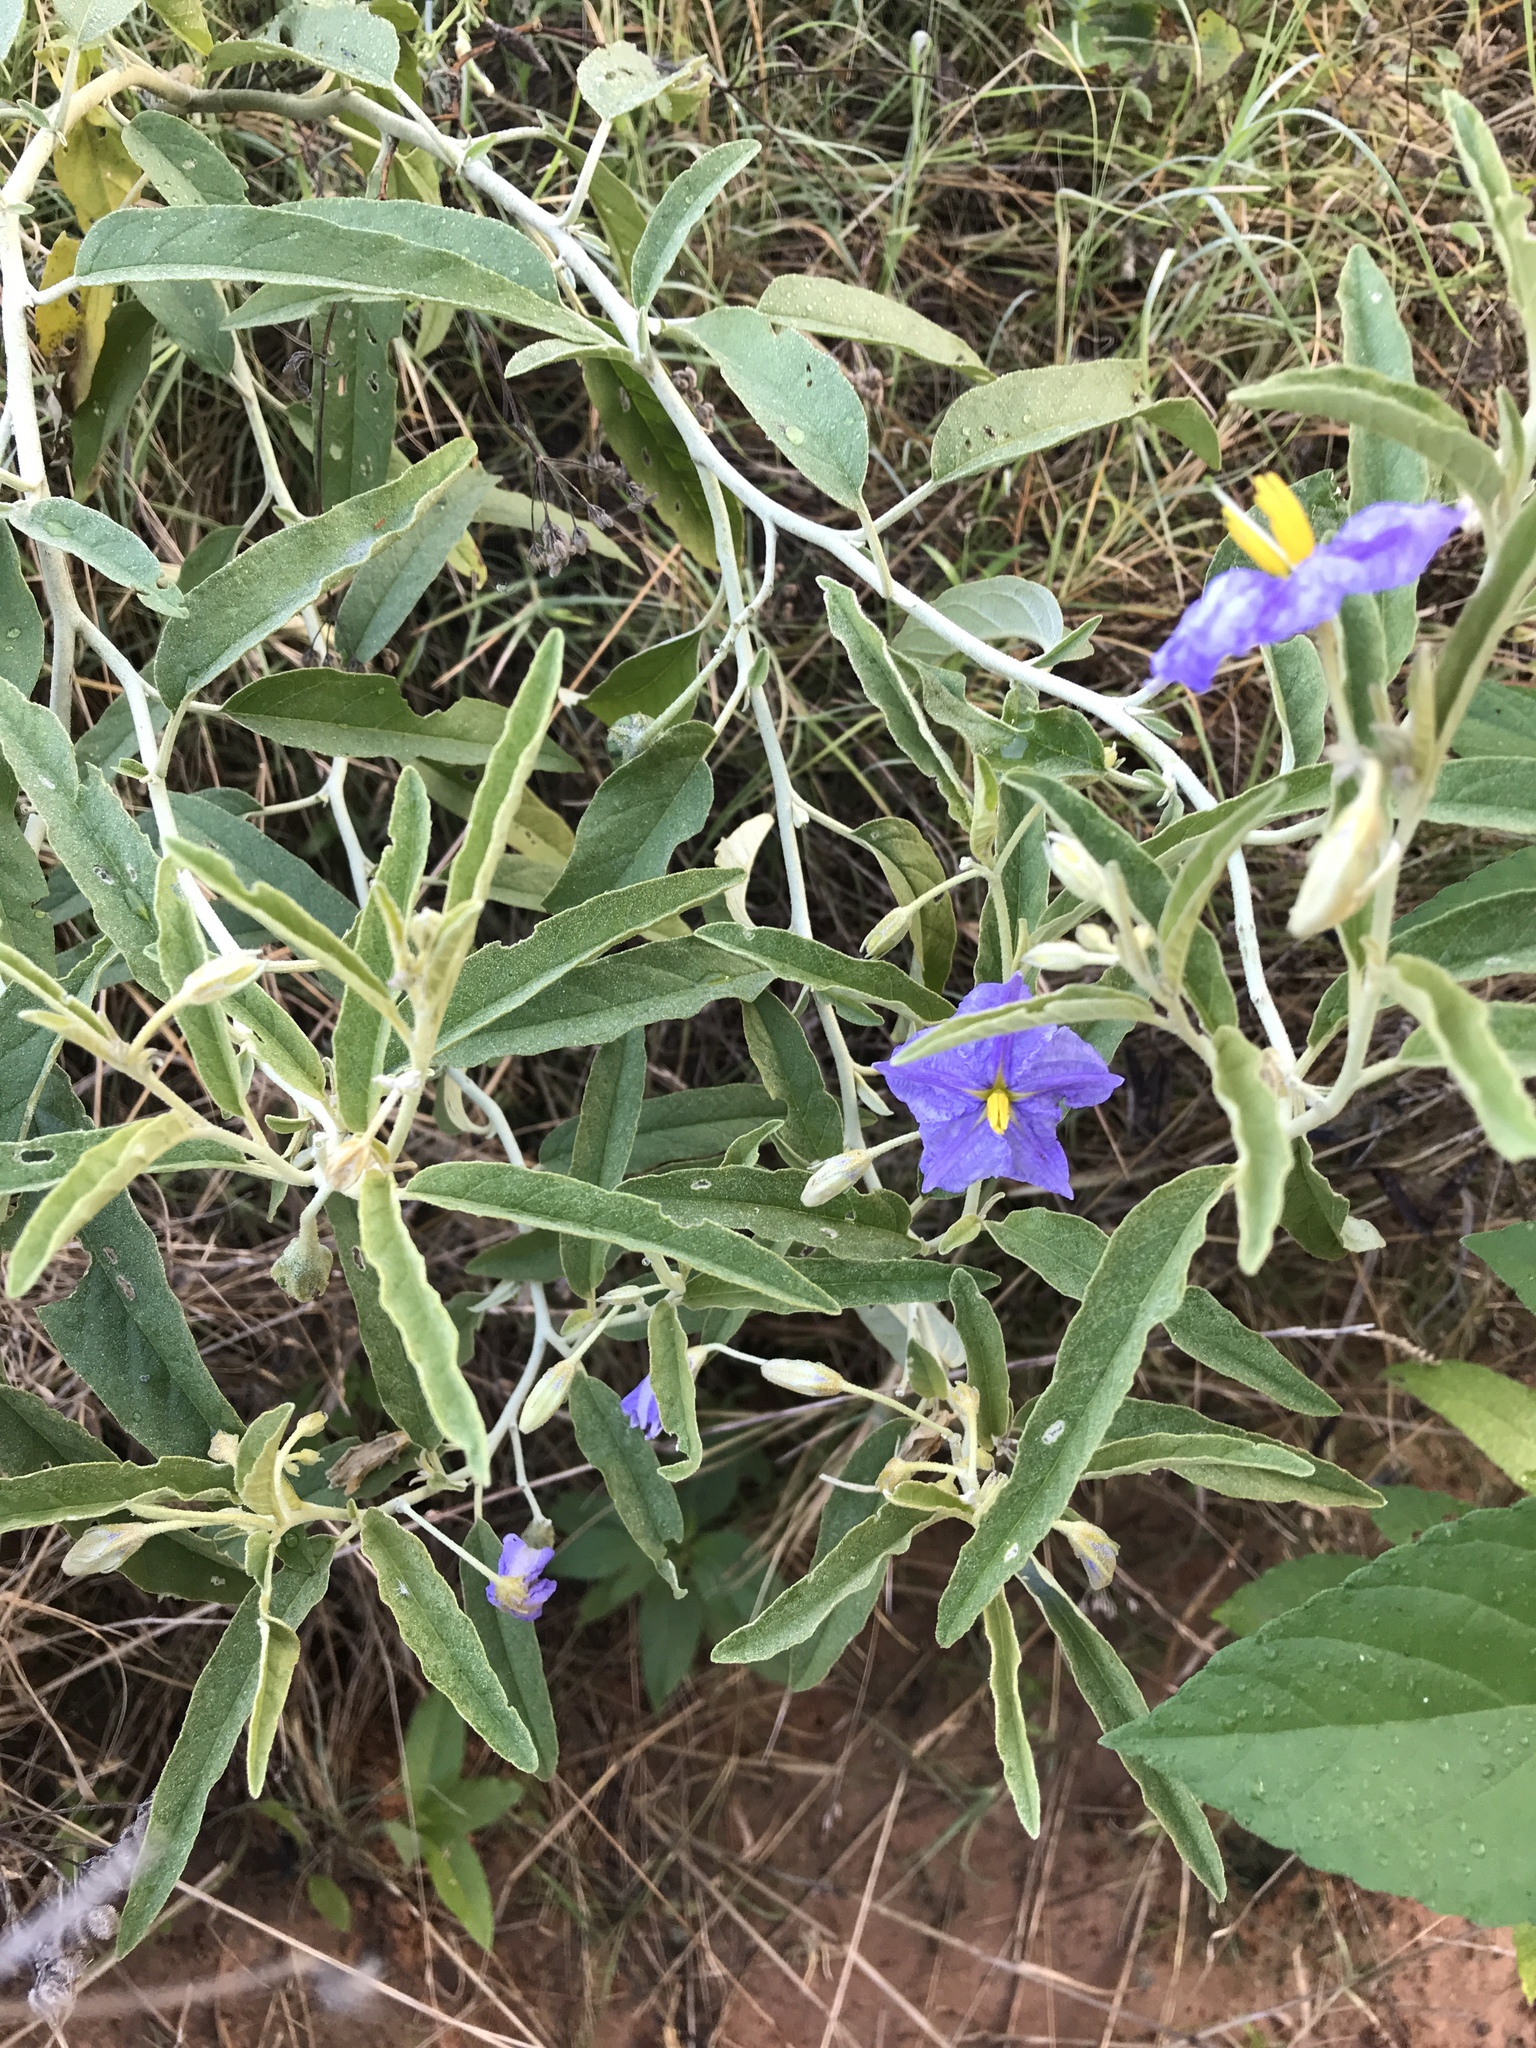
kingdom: Plantae
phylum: Tracheophyta
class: Magnoliopsida
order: Solanales
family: Solanaceae
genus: Solanum
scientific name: Solanum elaeagnifolium
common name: Silverleaf nightshade
